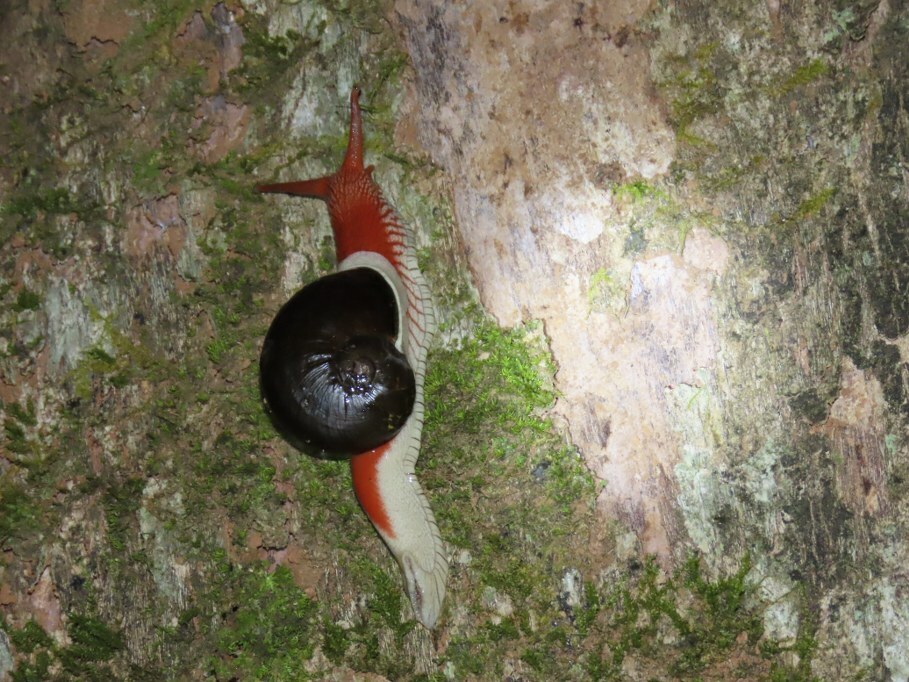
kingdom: Animalia
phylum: Mollusca
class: Gastropoda
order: Stylommatophora
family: Ariophantidae
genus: Indrella
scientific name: Indrella ampulla
